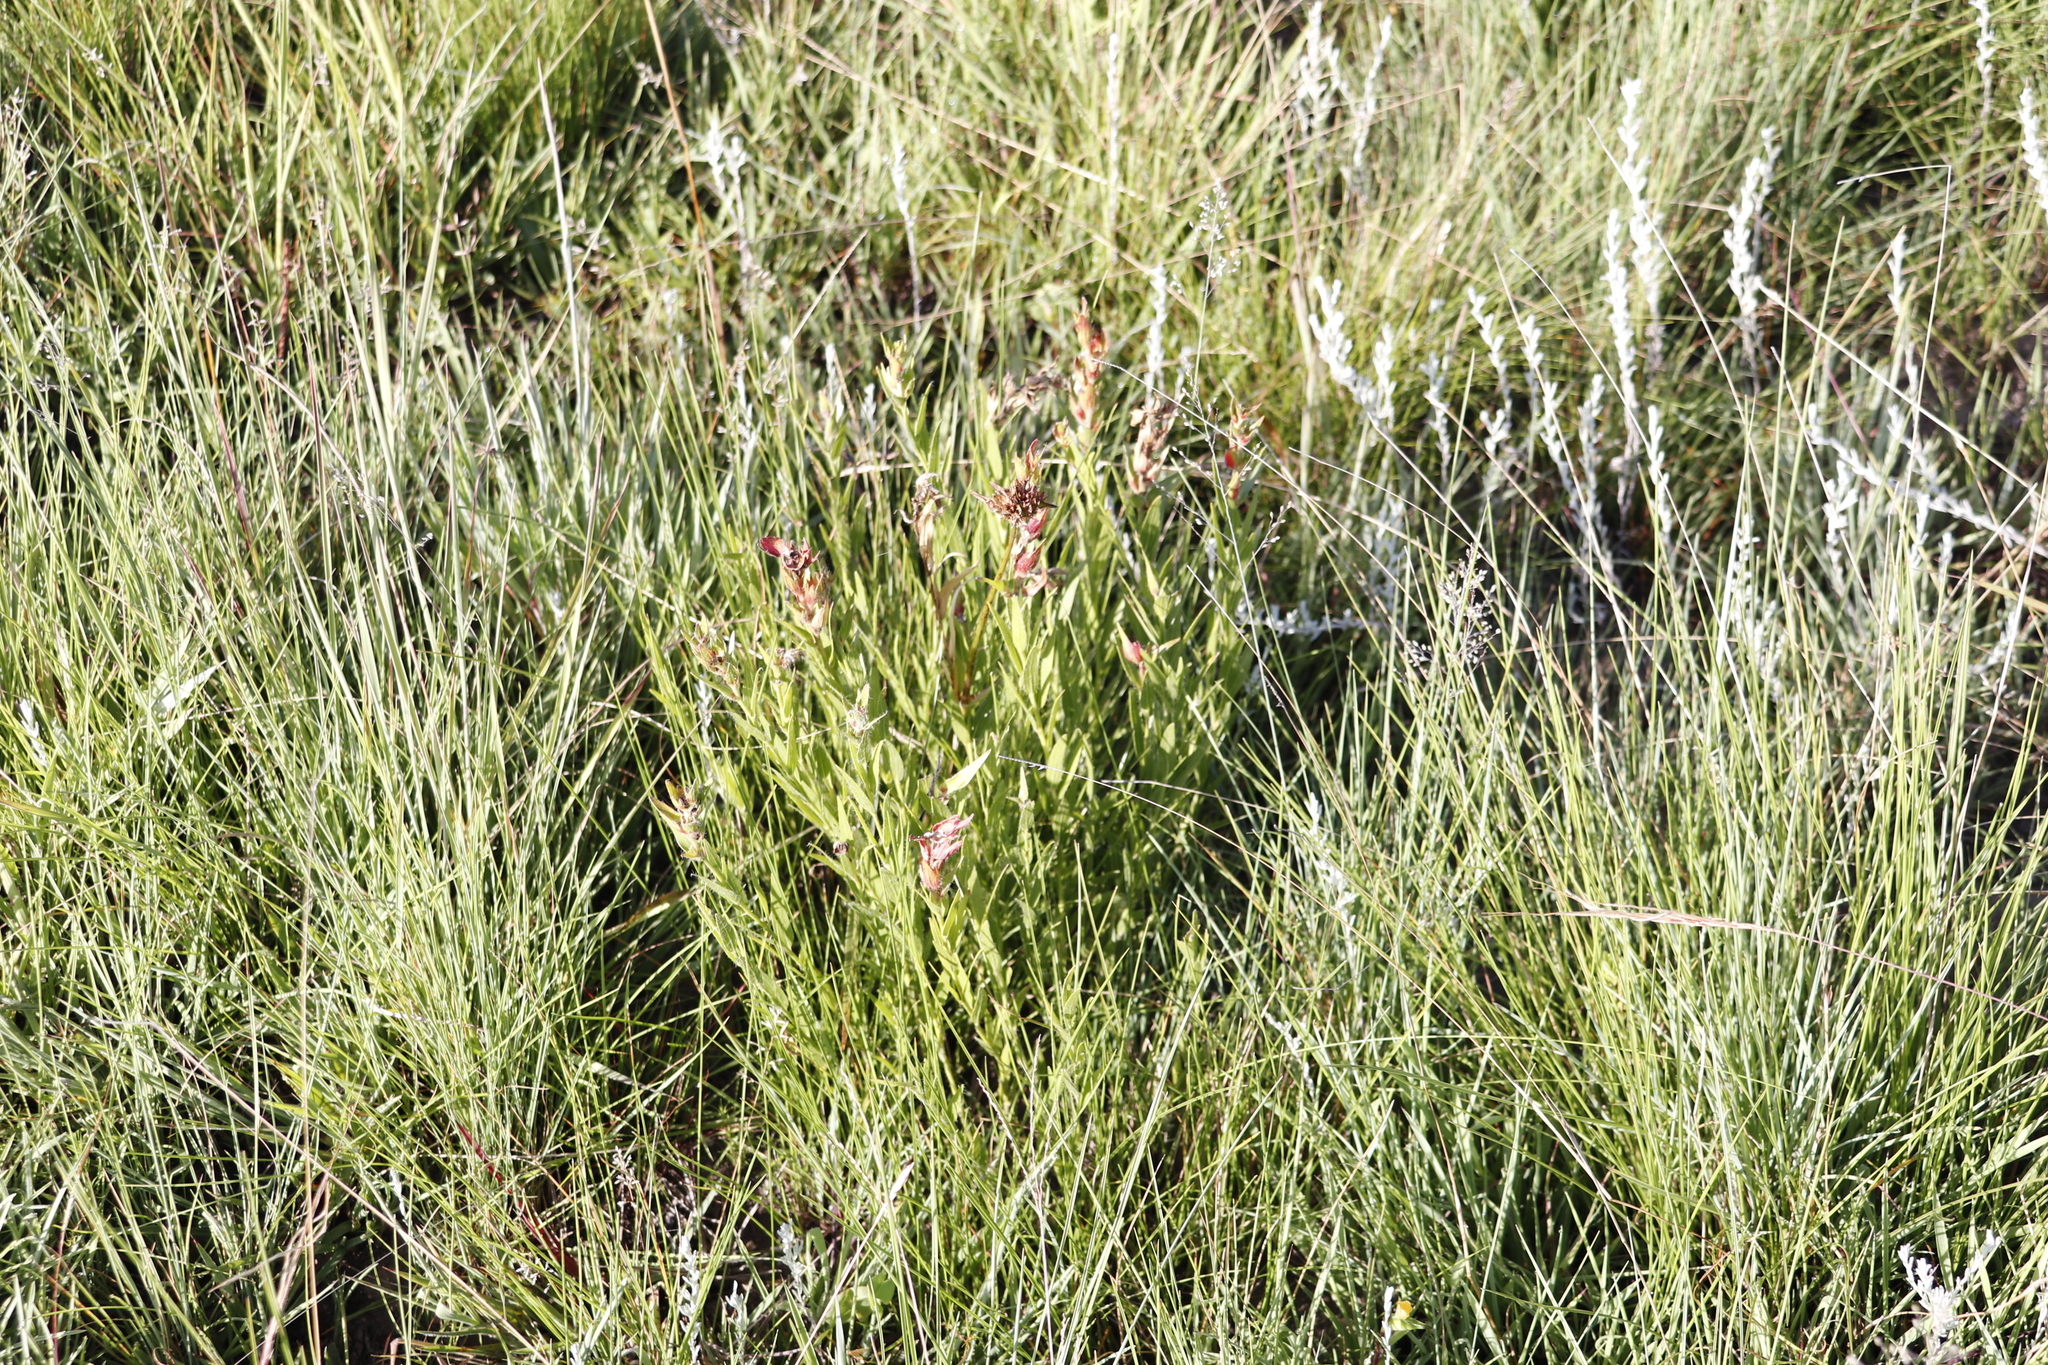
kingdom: Plantae
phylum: Tracheophyta
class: Magnoliopsida
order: Malpighiales
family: Euphorbiaceae
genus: Acalypha
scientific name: Acalypha punctata
